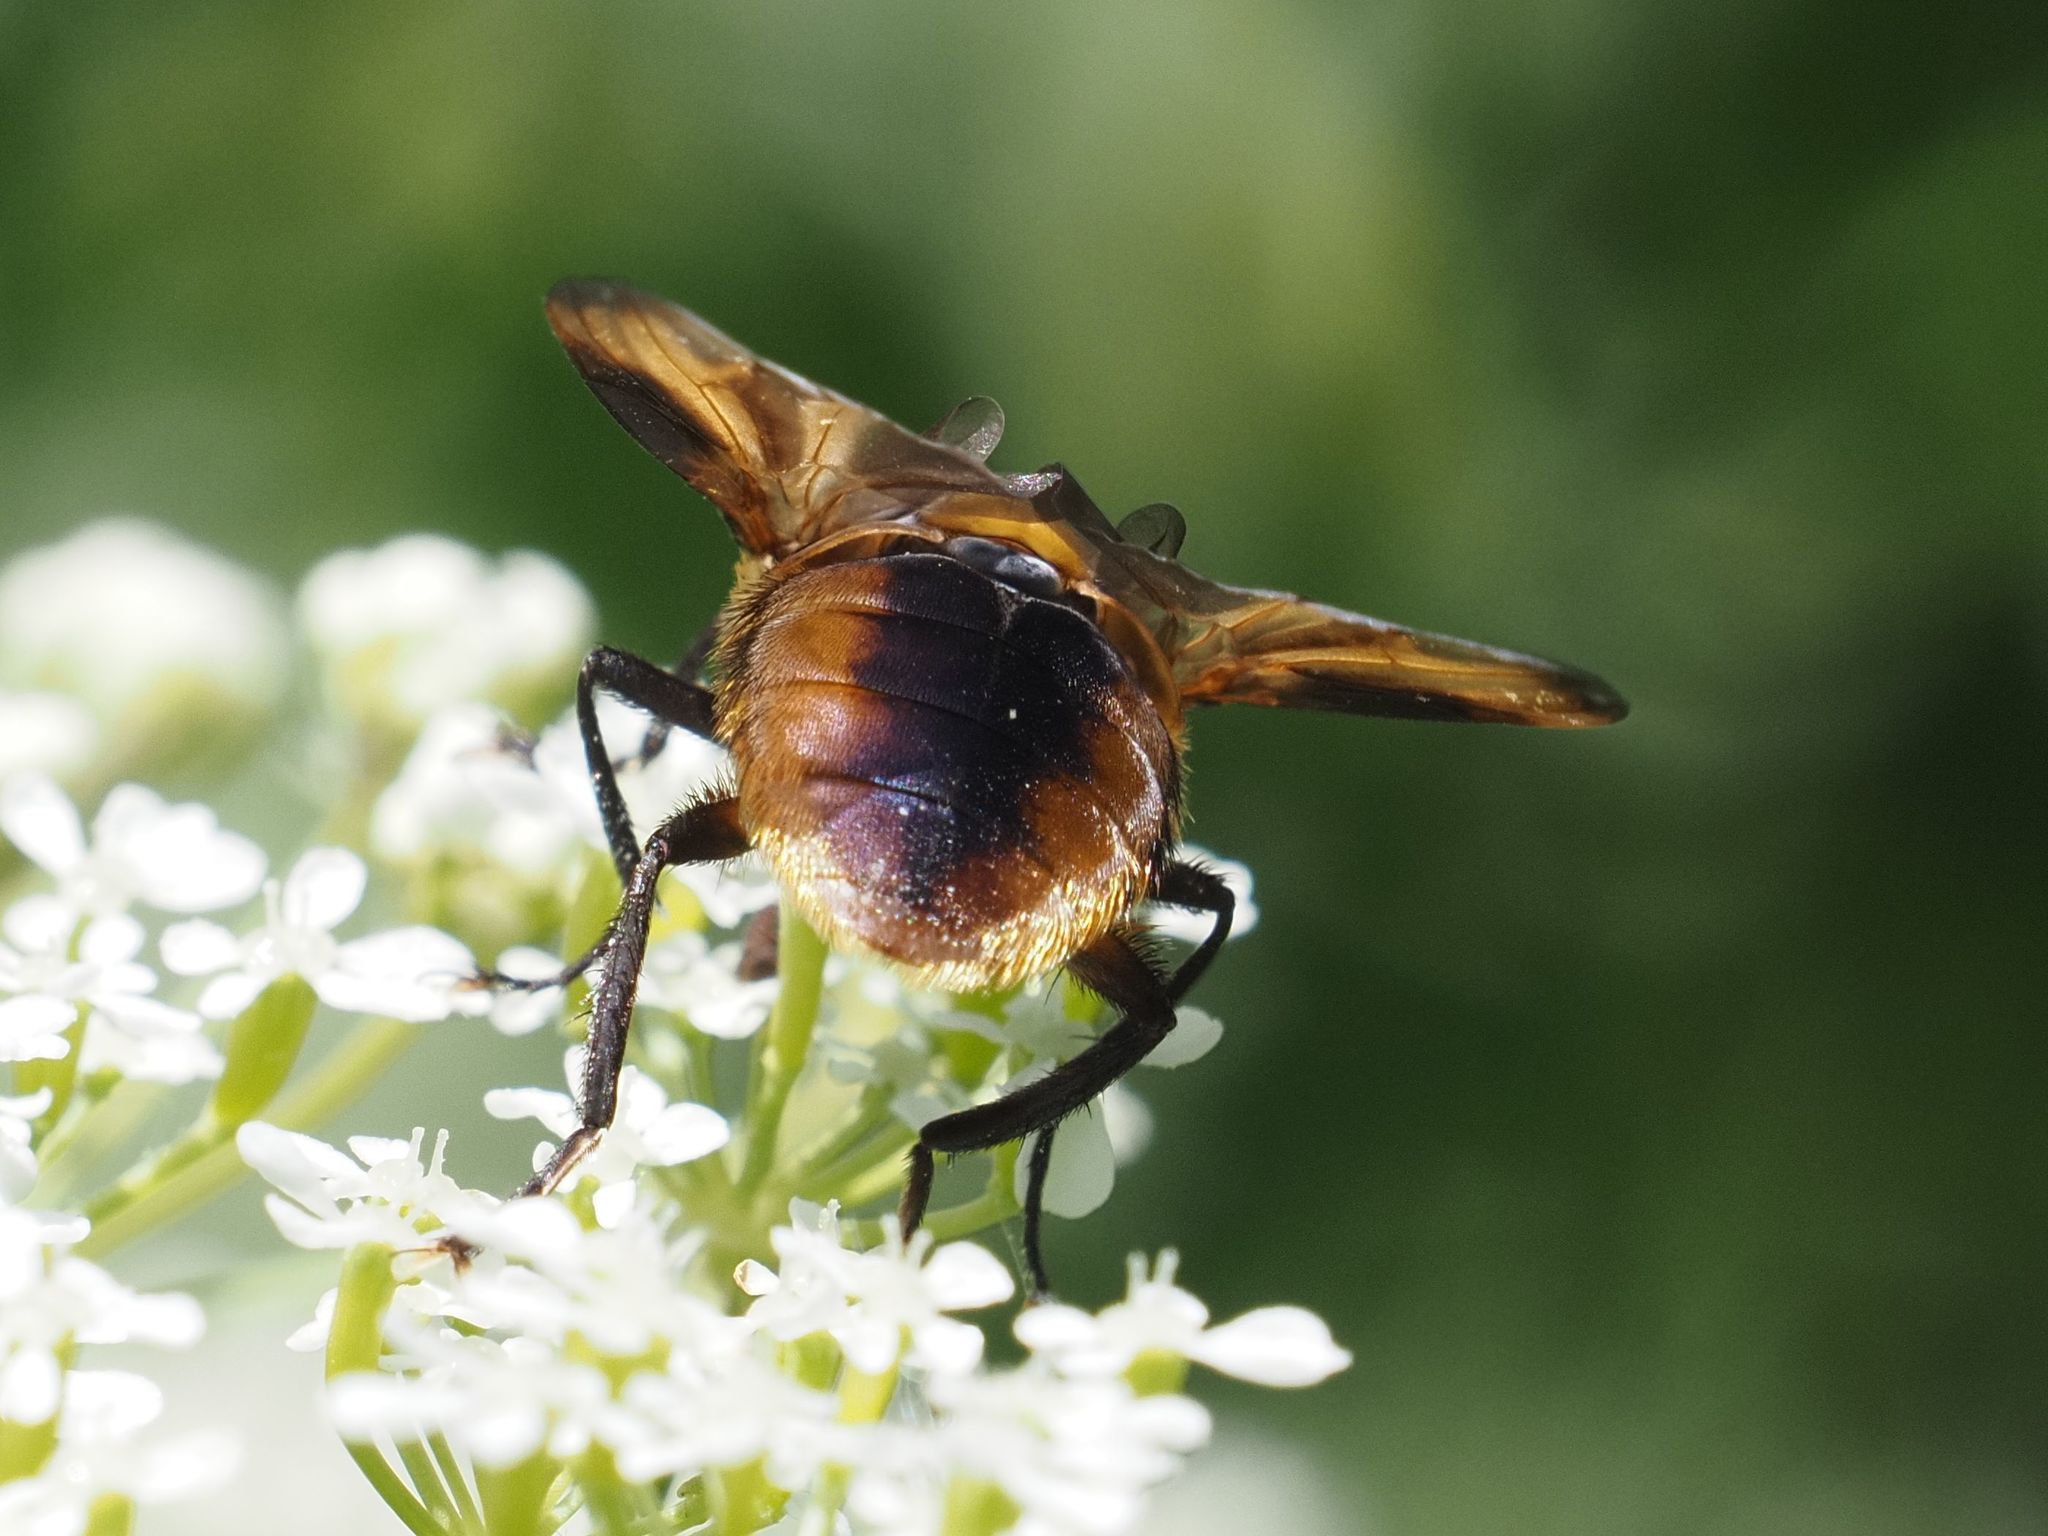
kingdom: Animalia
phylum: Arthropoda
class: Insecta
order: Diptera
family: Tachinidae
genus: Phasia
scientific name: Phasia hemiptera
